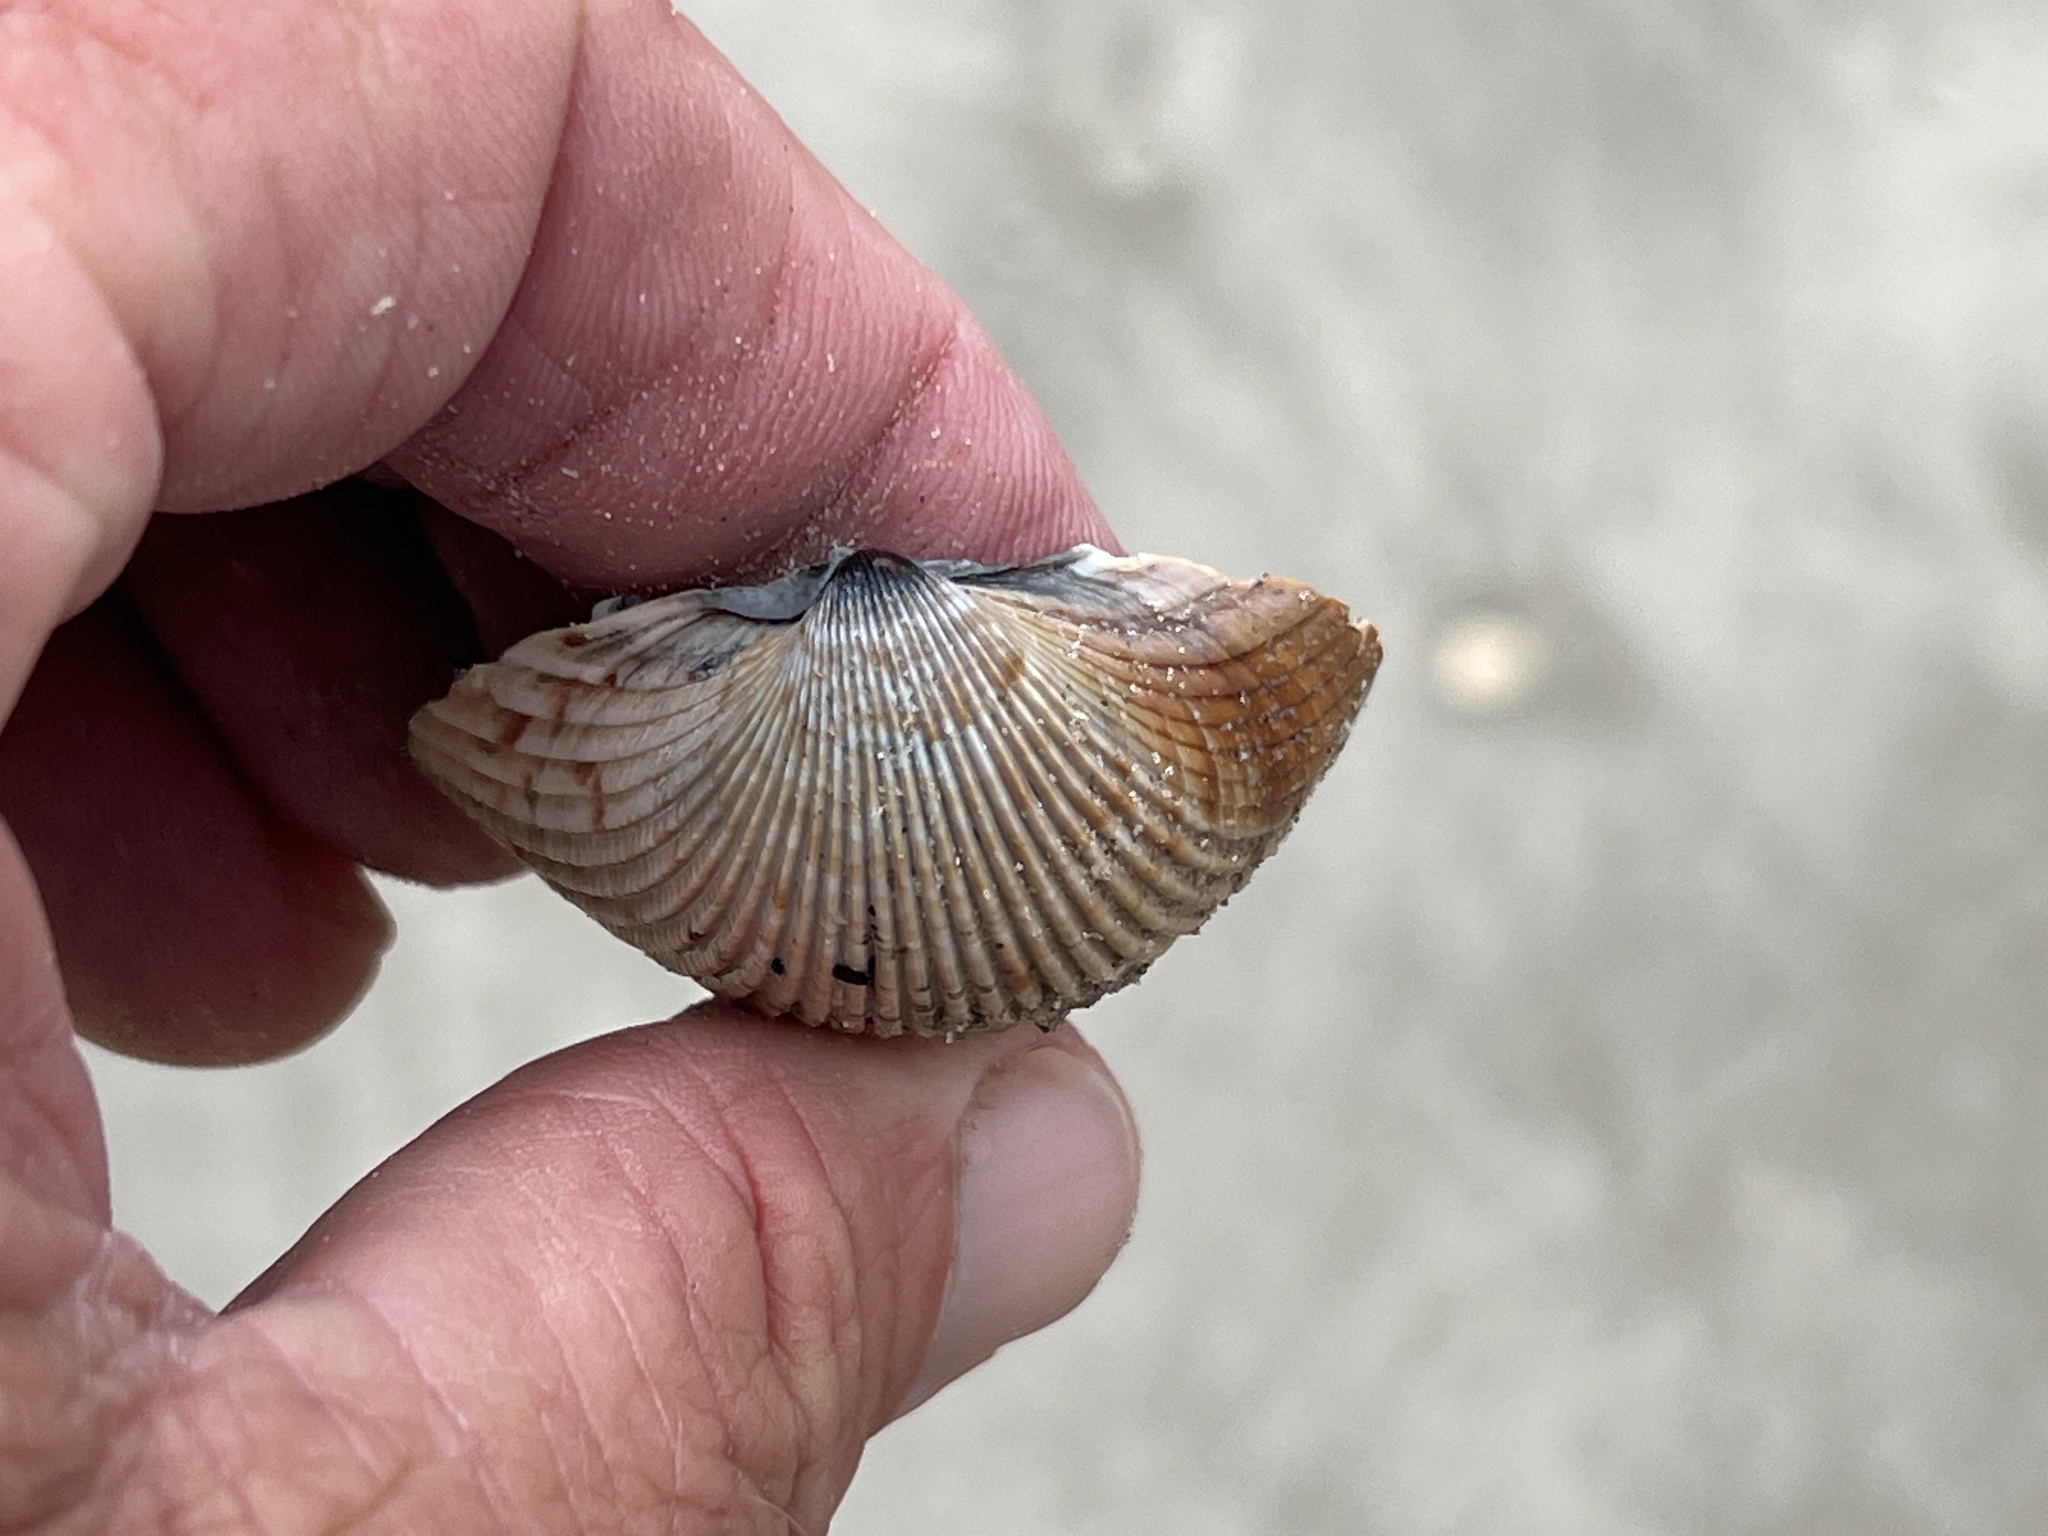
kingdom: Animalia
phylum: Mollusca
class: Bivalvia
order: Cardiida
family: Cardiidae
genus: Dinocardium
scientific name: Dinocardium robustum
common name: Atlantic giant cockle
